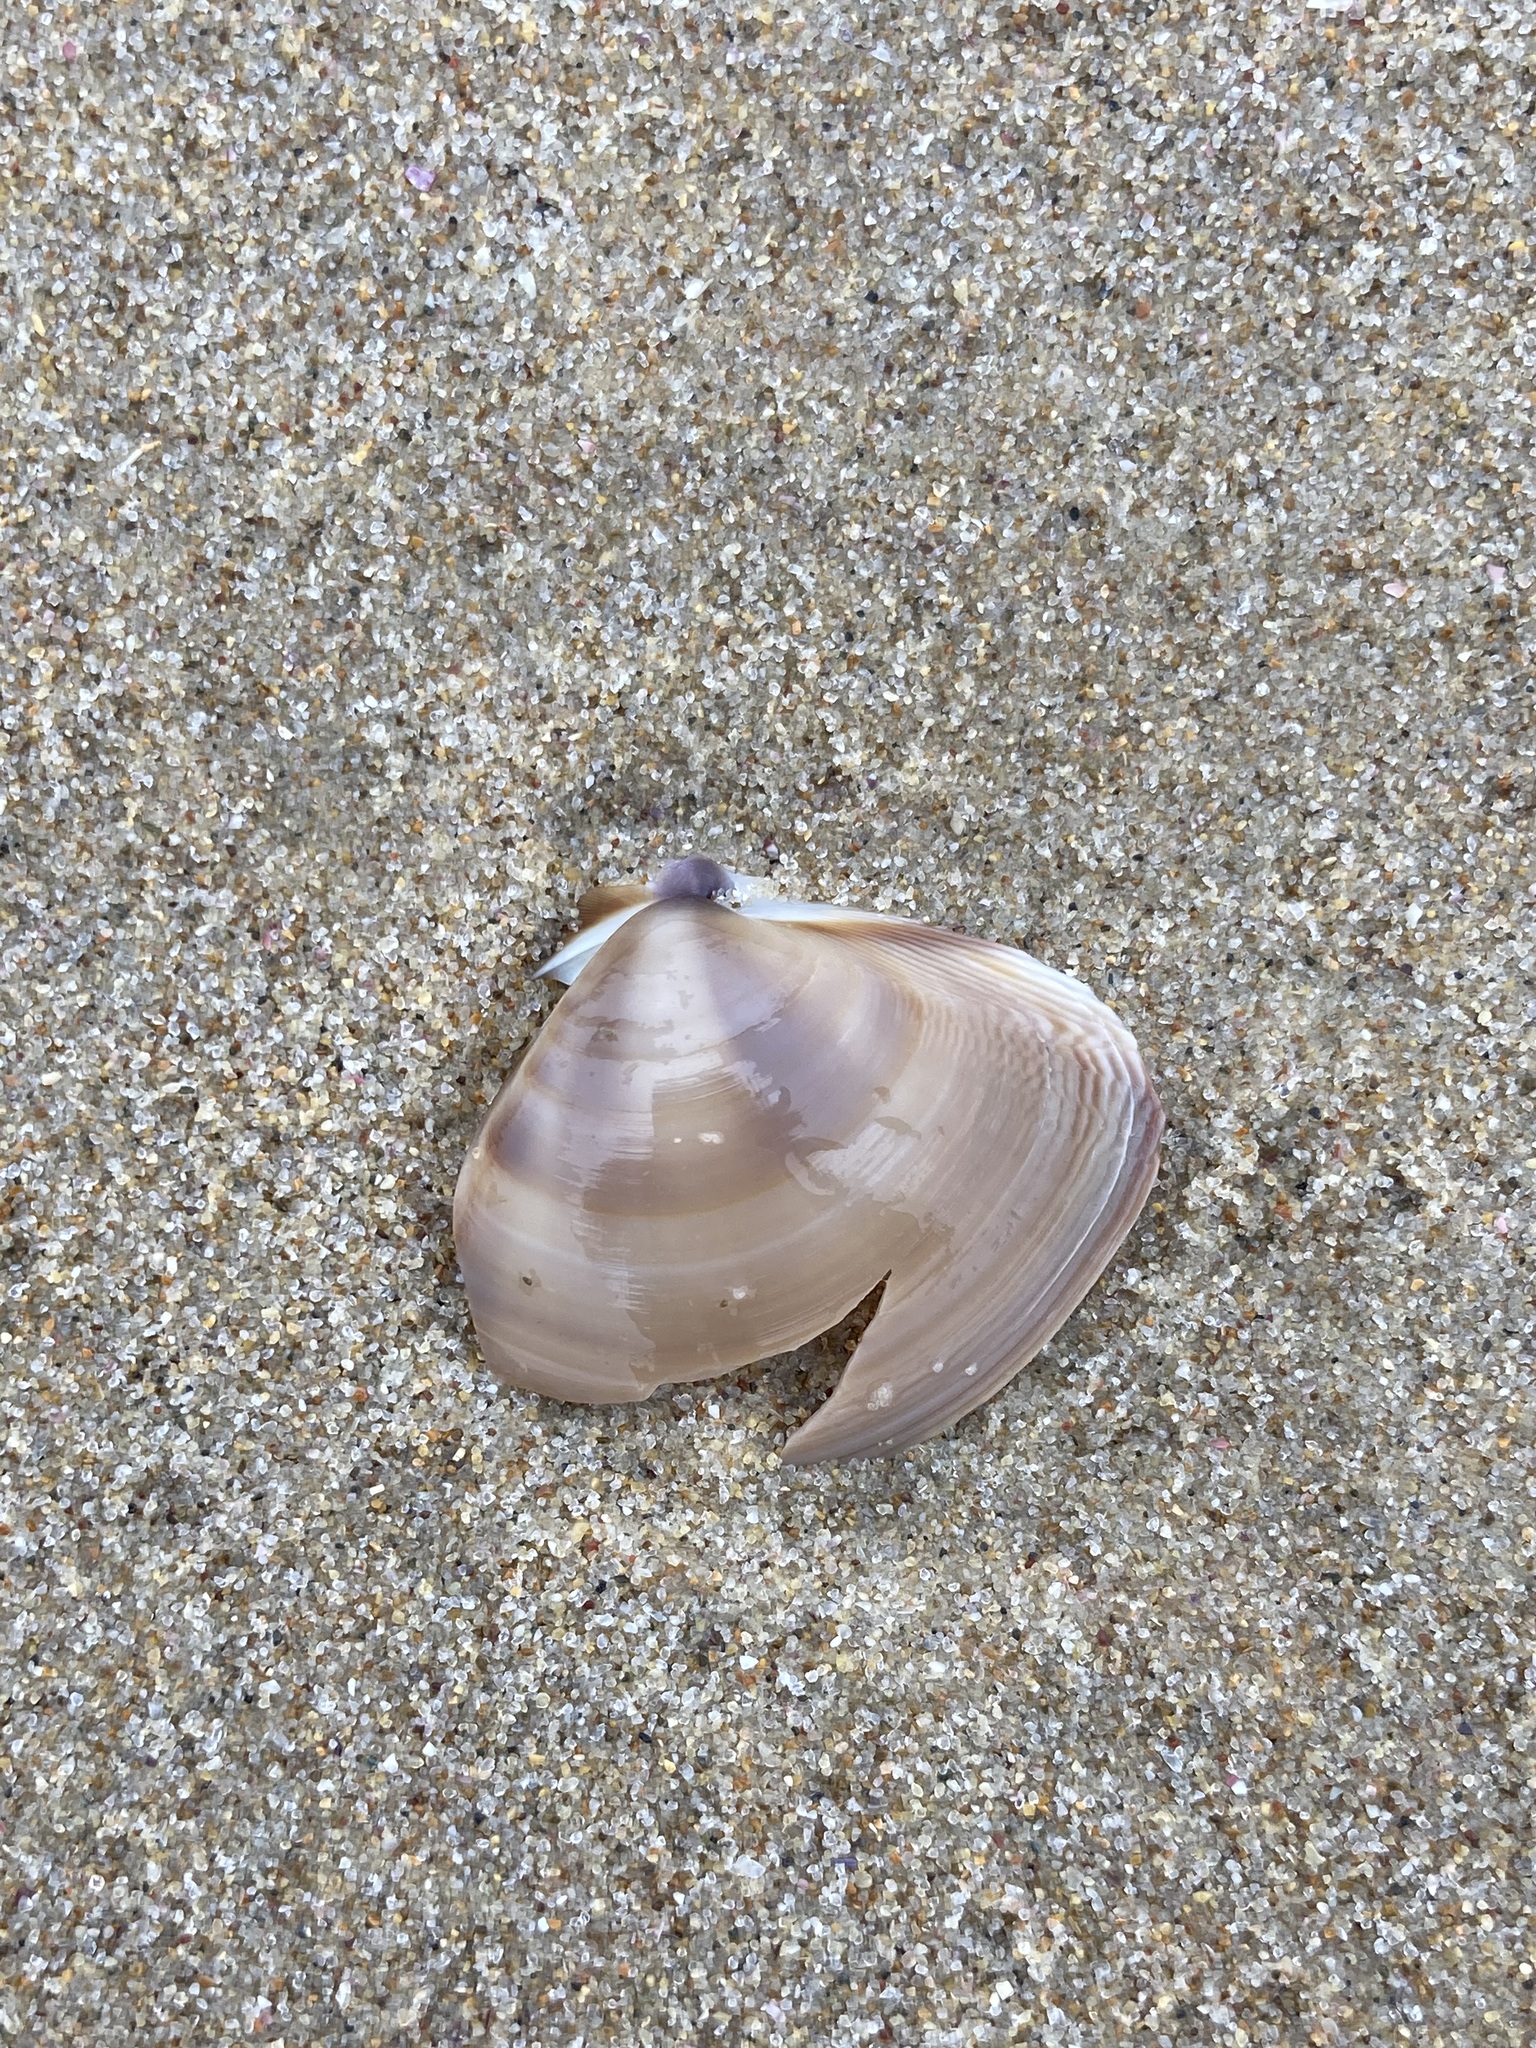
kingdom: Animalia
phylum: Mollusca
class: Bivalvia
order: Venerida
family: Mactridae
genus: Austromactra
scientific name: Austromactra contraria
